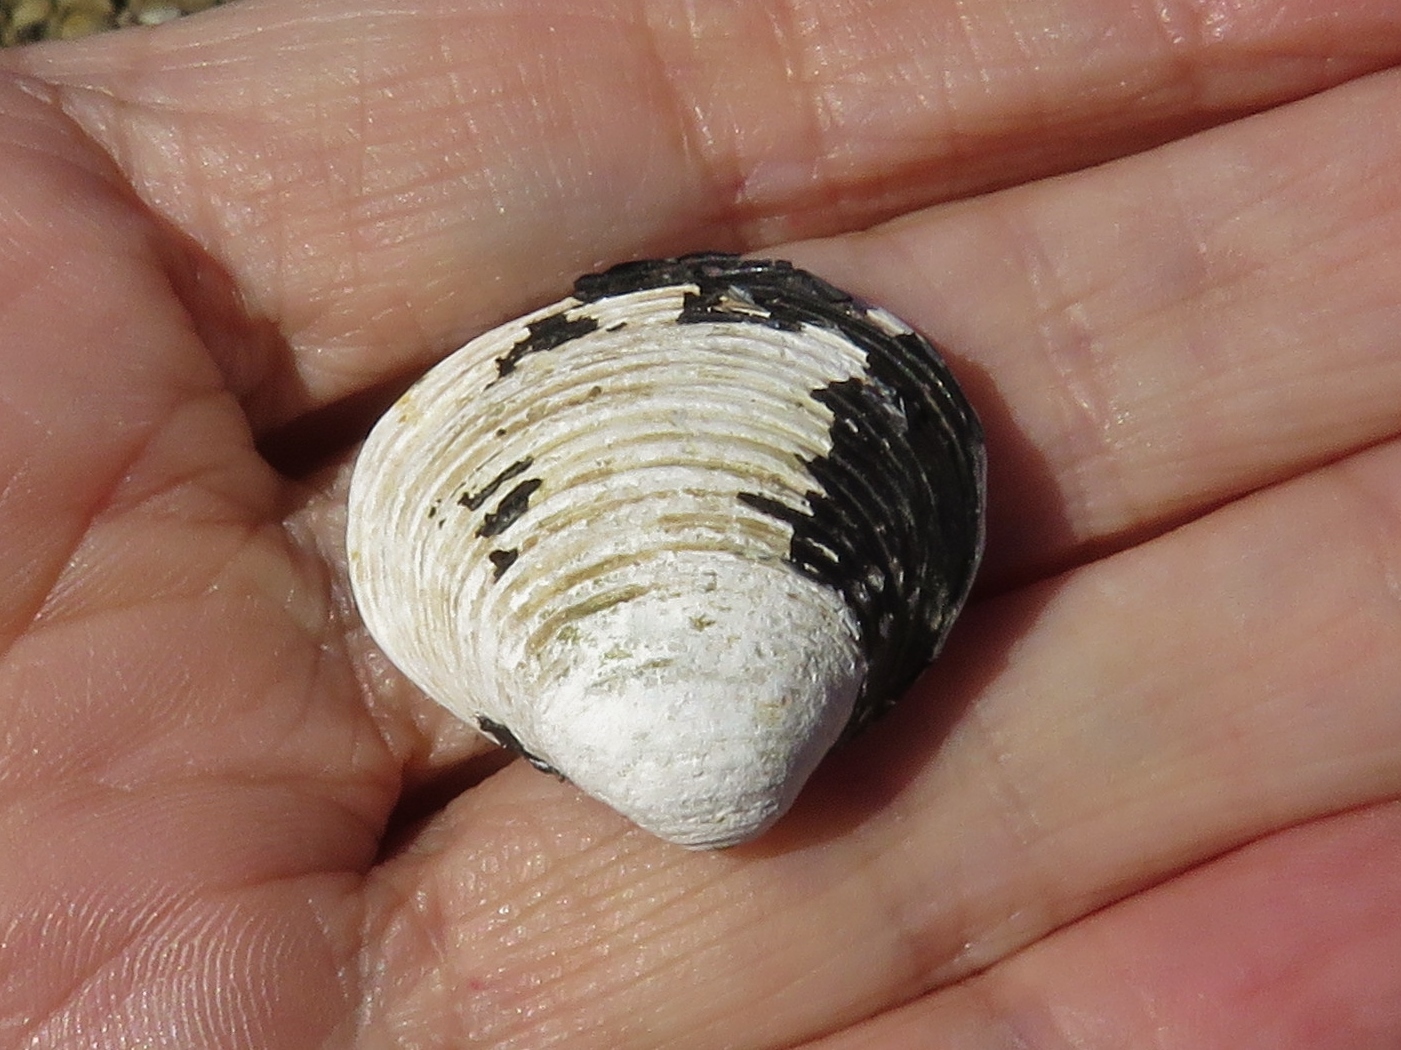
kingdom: Animalia
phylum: Mollusca
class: Bivalvia
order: Venerida
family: Cyrenidae
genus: Corbicula
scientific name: Corbicula fluminea
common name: Asian clam
